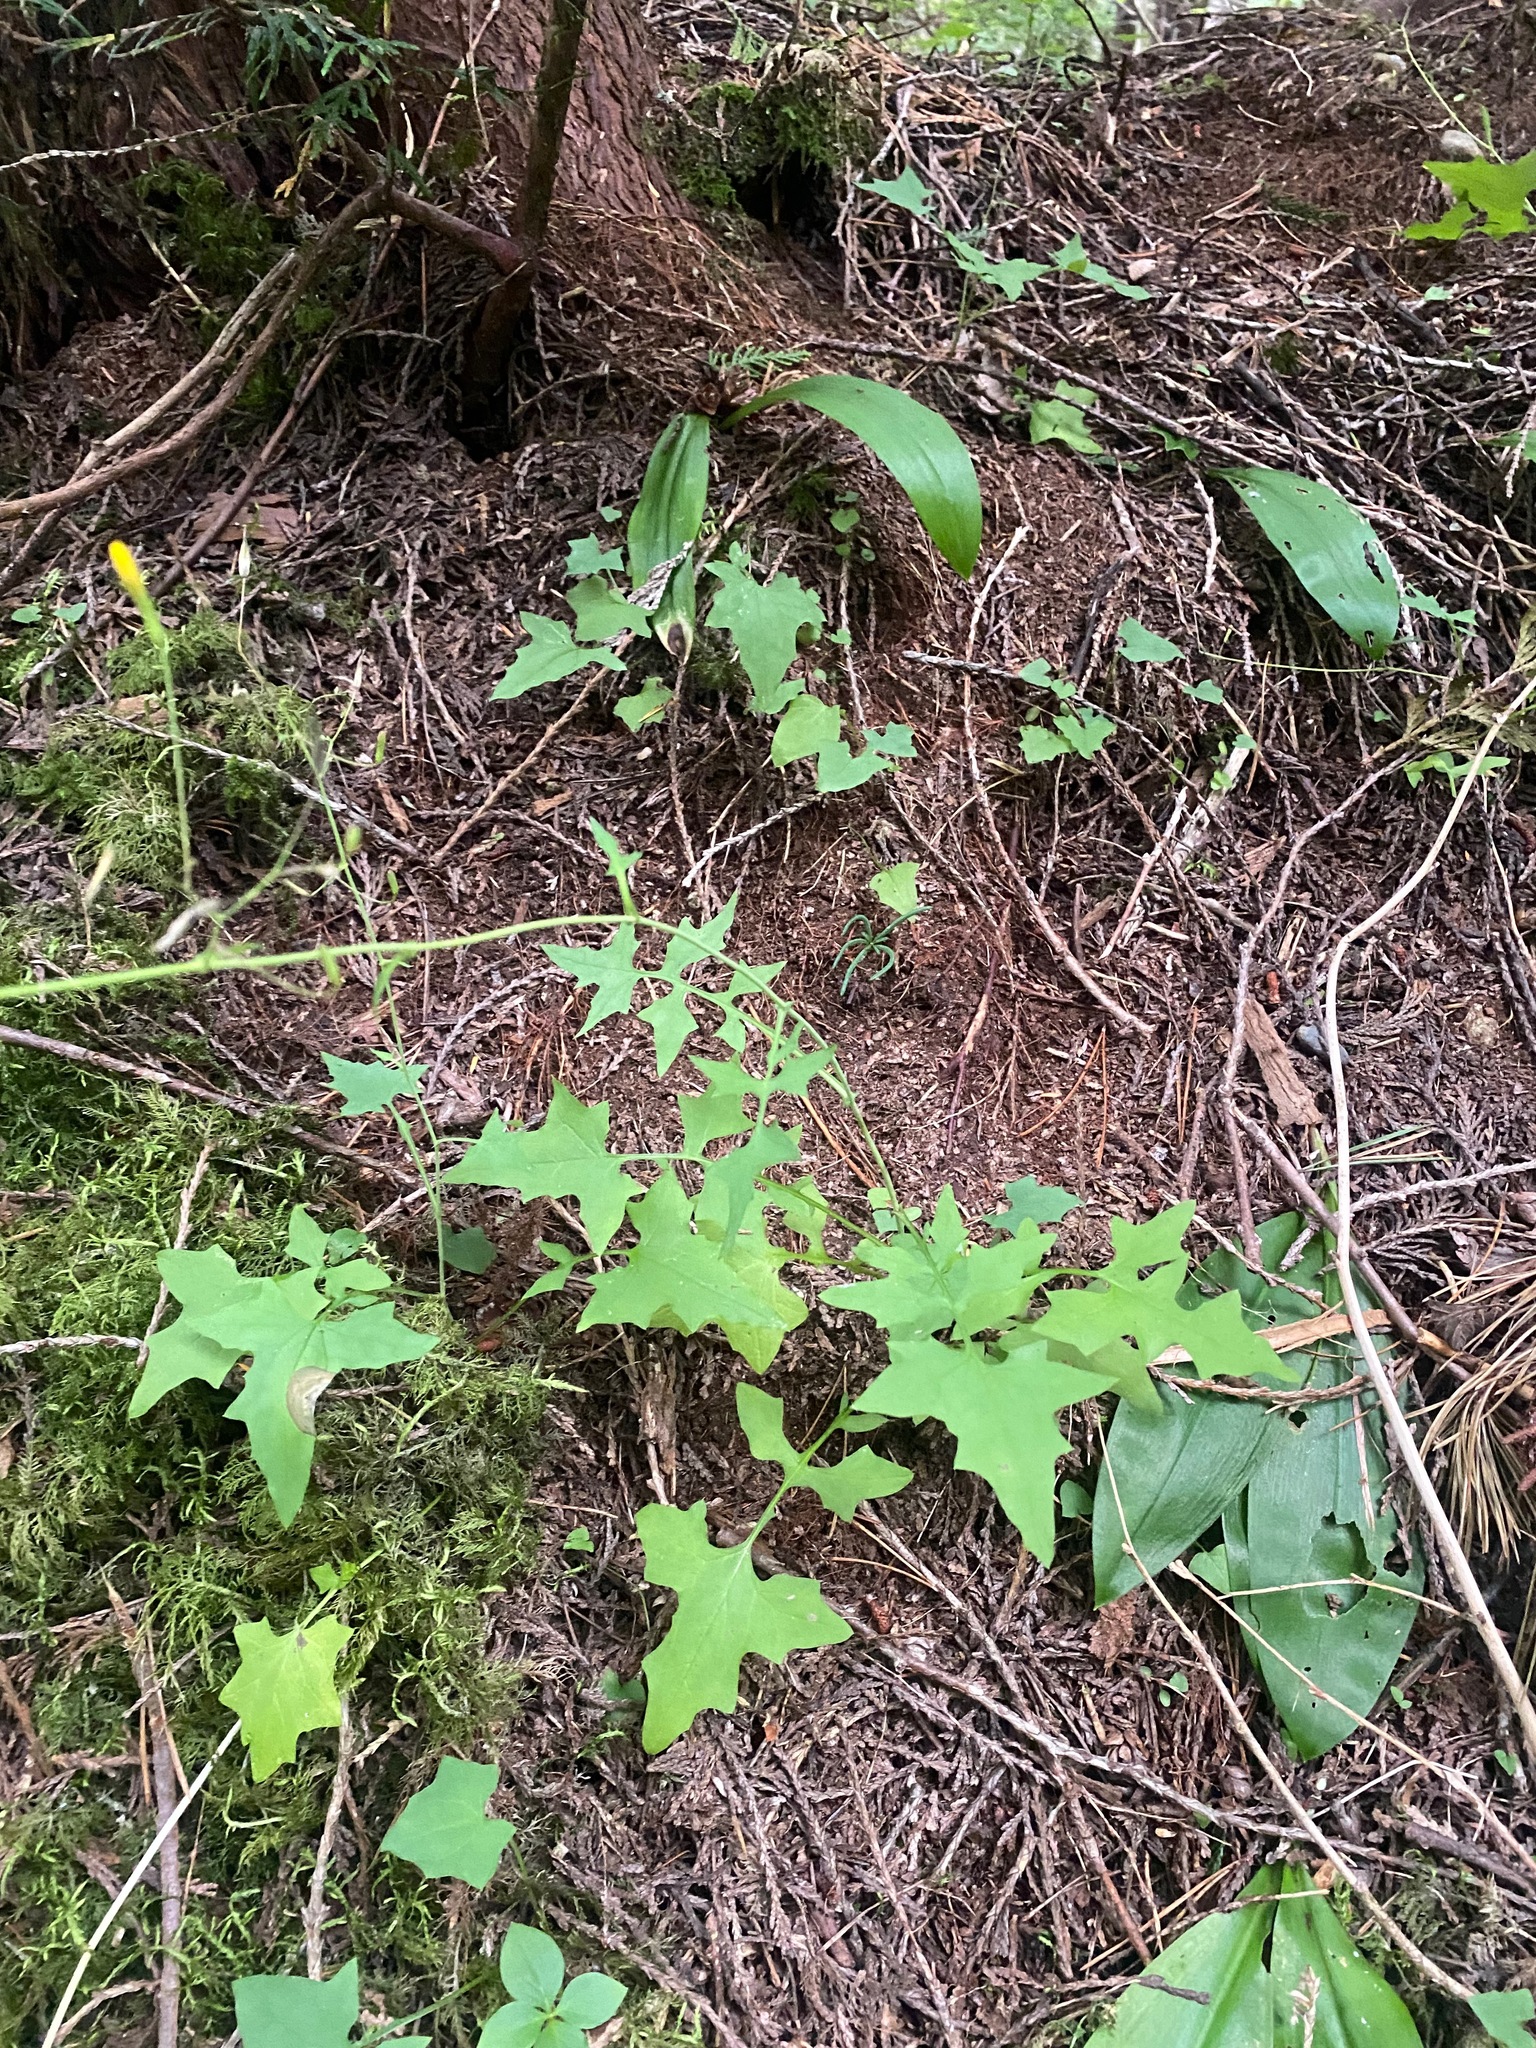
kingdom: Plantae
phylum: Tracheophyta
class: Magnoliopsida
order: Asterales
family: Asteraceae
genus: Mycelis
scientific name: Mycelis muralis
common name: Wall lettuce
